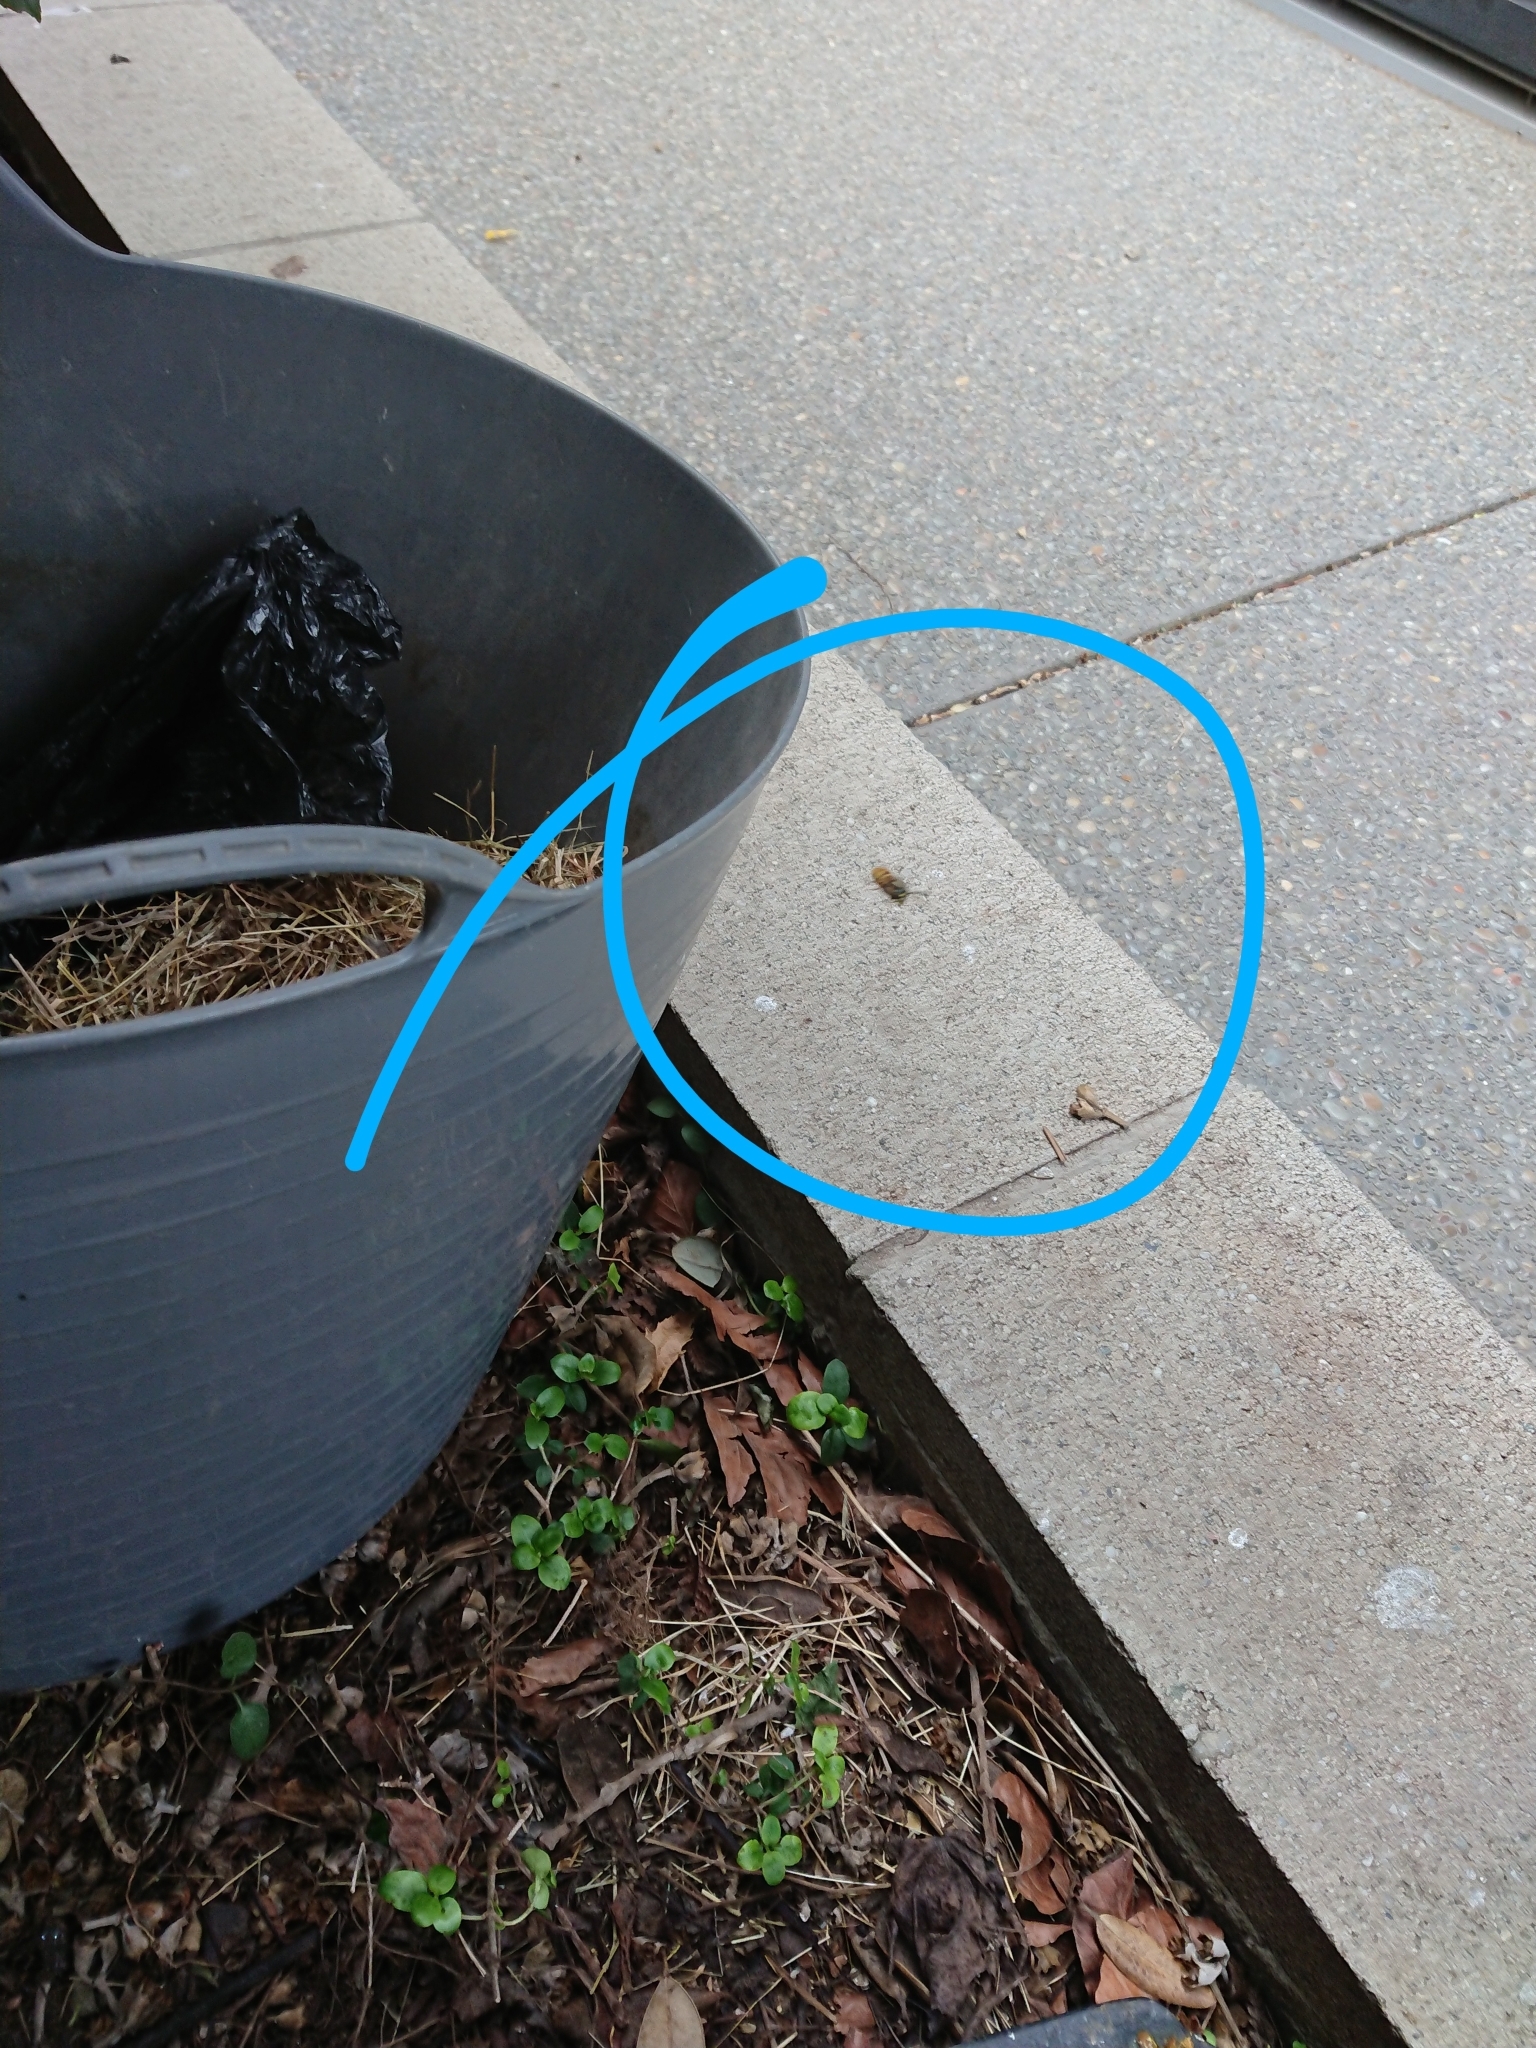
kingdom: Animalia
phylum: Arthropoda
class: Insecta
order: Hymenoptera
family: Vespidae
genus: Vespula
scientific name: Vespula
